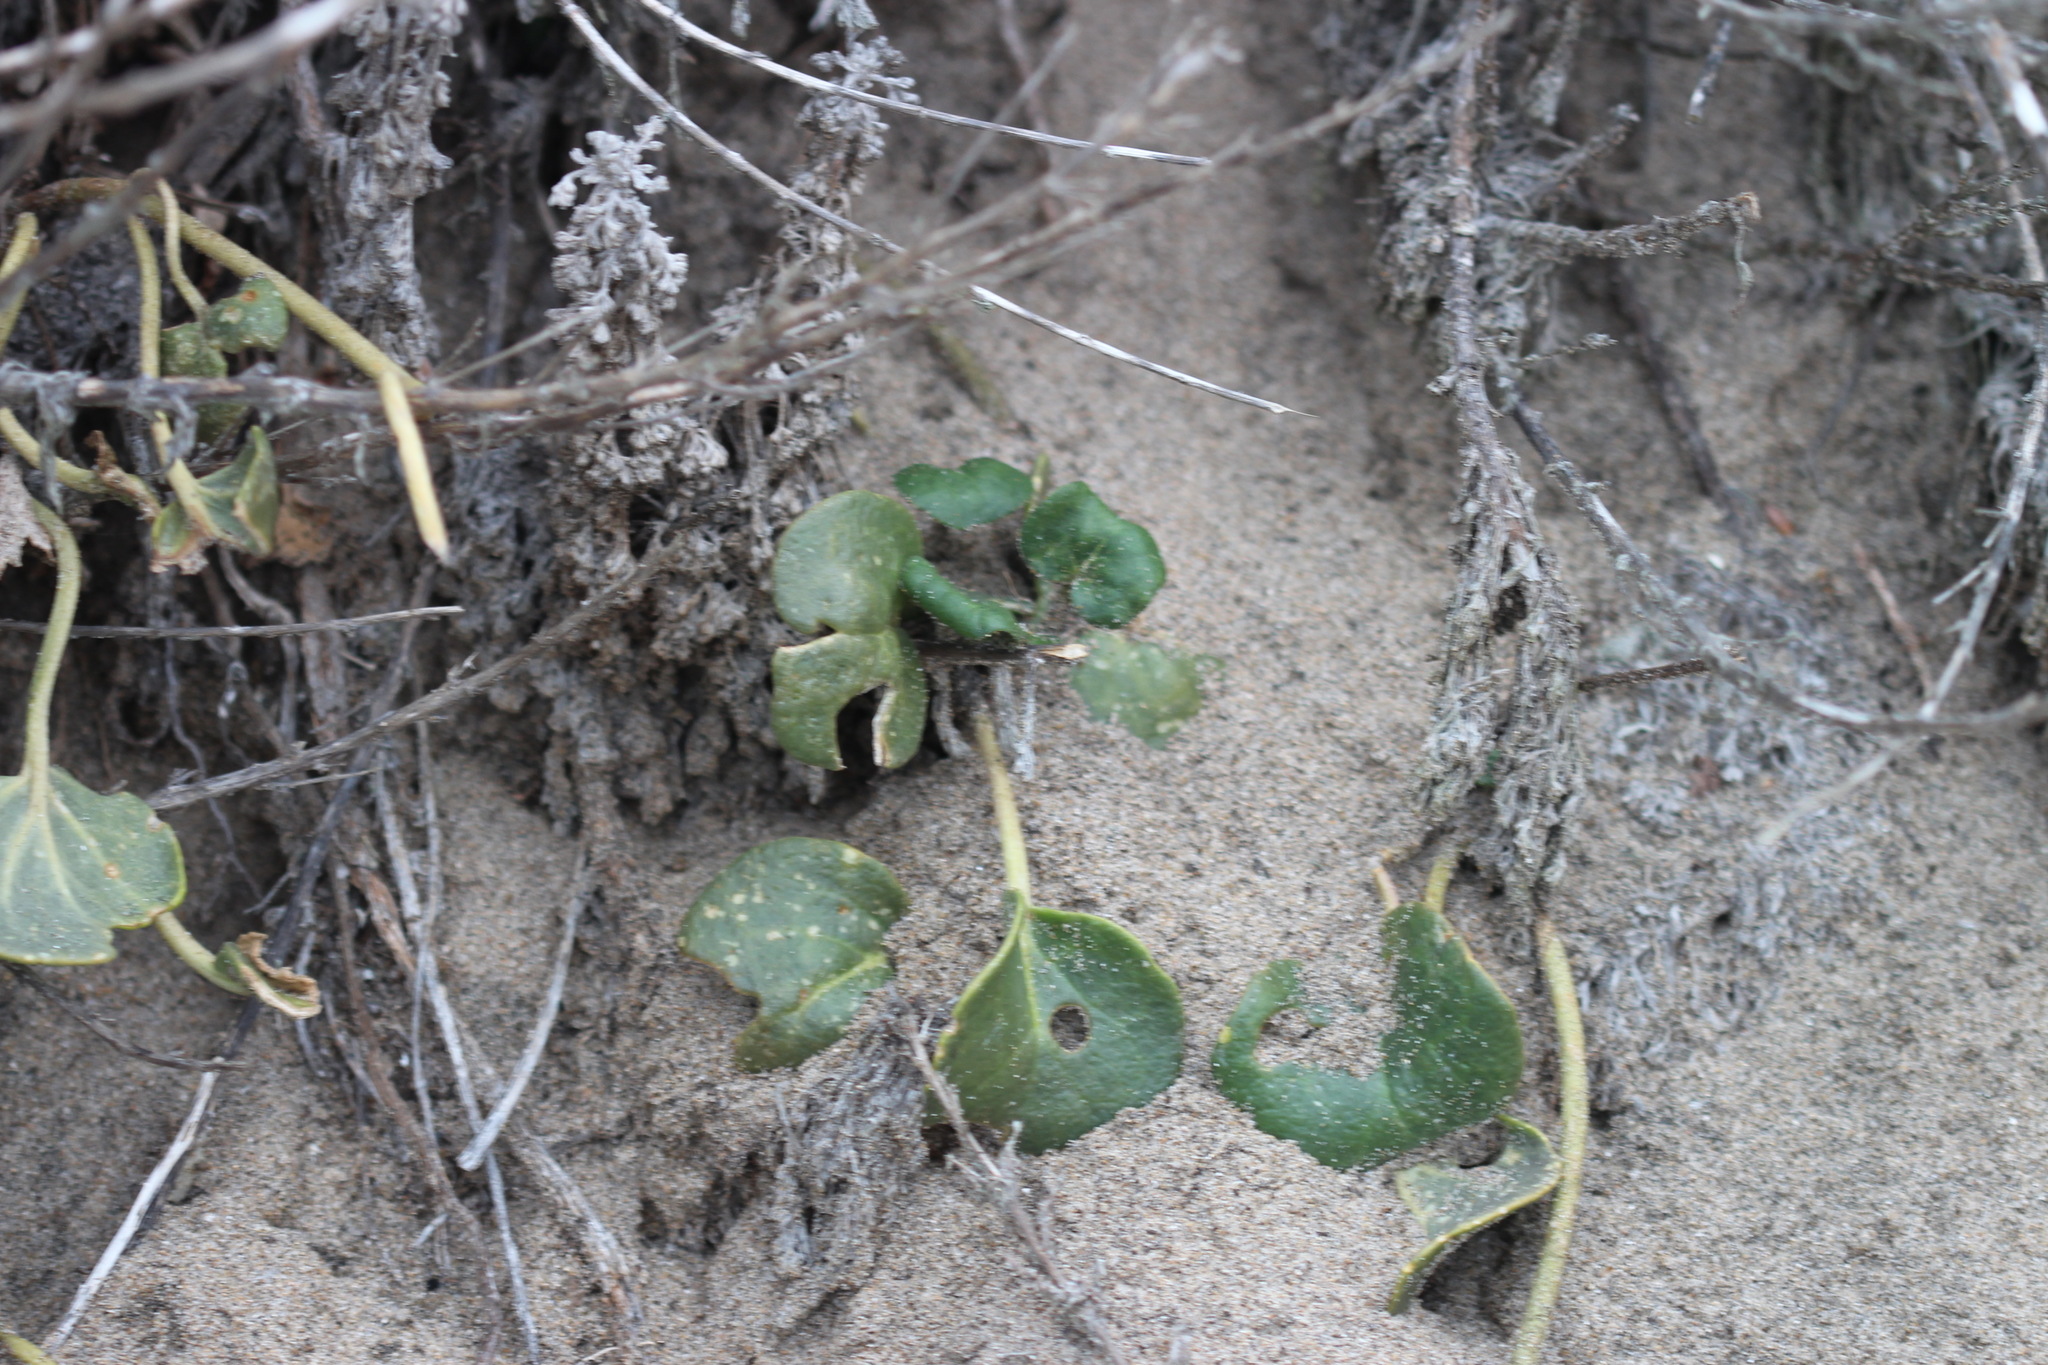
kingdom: Plantae
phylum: Tracheophyta
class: Magnoliopsida
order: Caryophyllales
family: Nyctaginaceae
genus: Abronia
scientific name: Abronia latifolia
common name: Yellow sand-verbena
